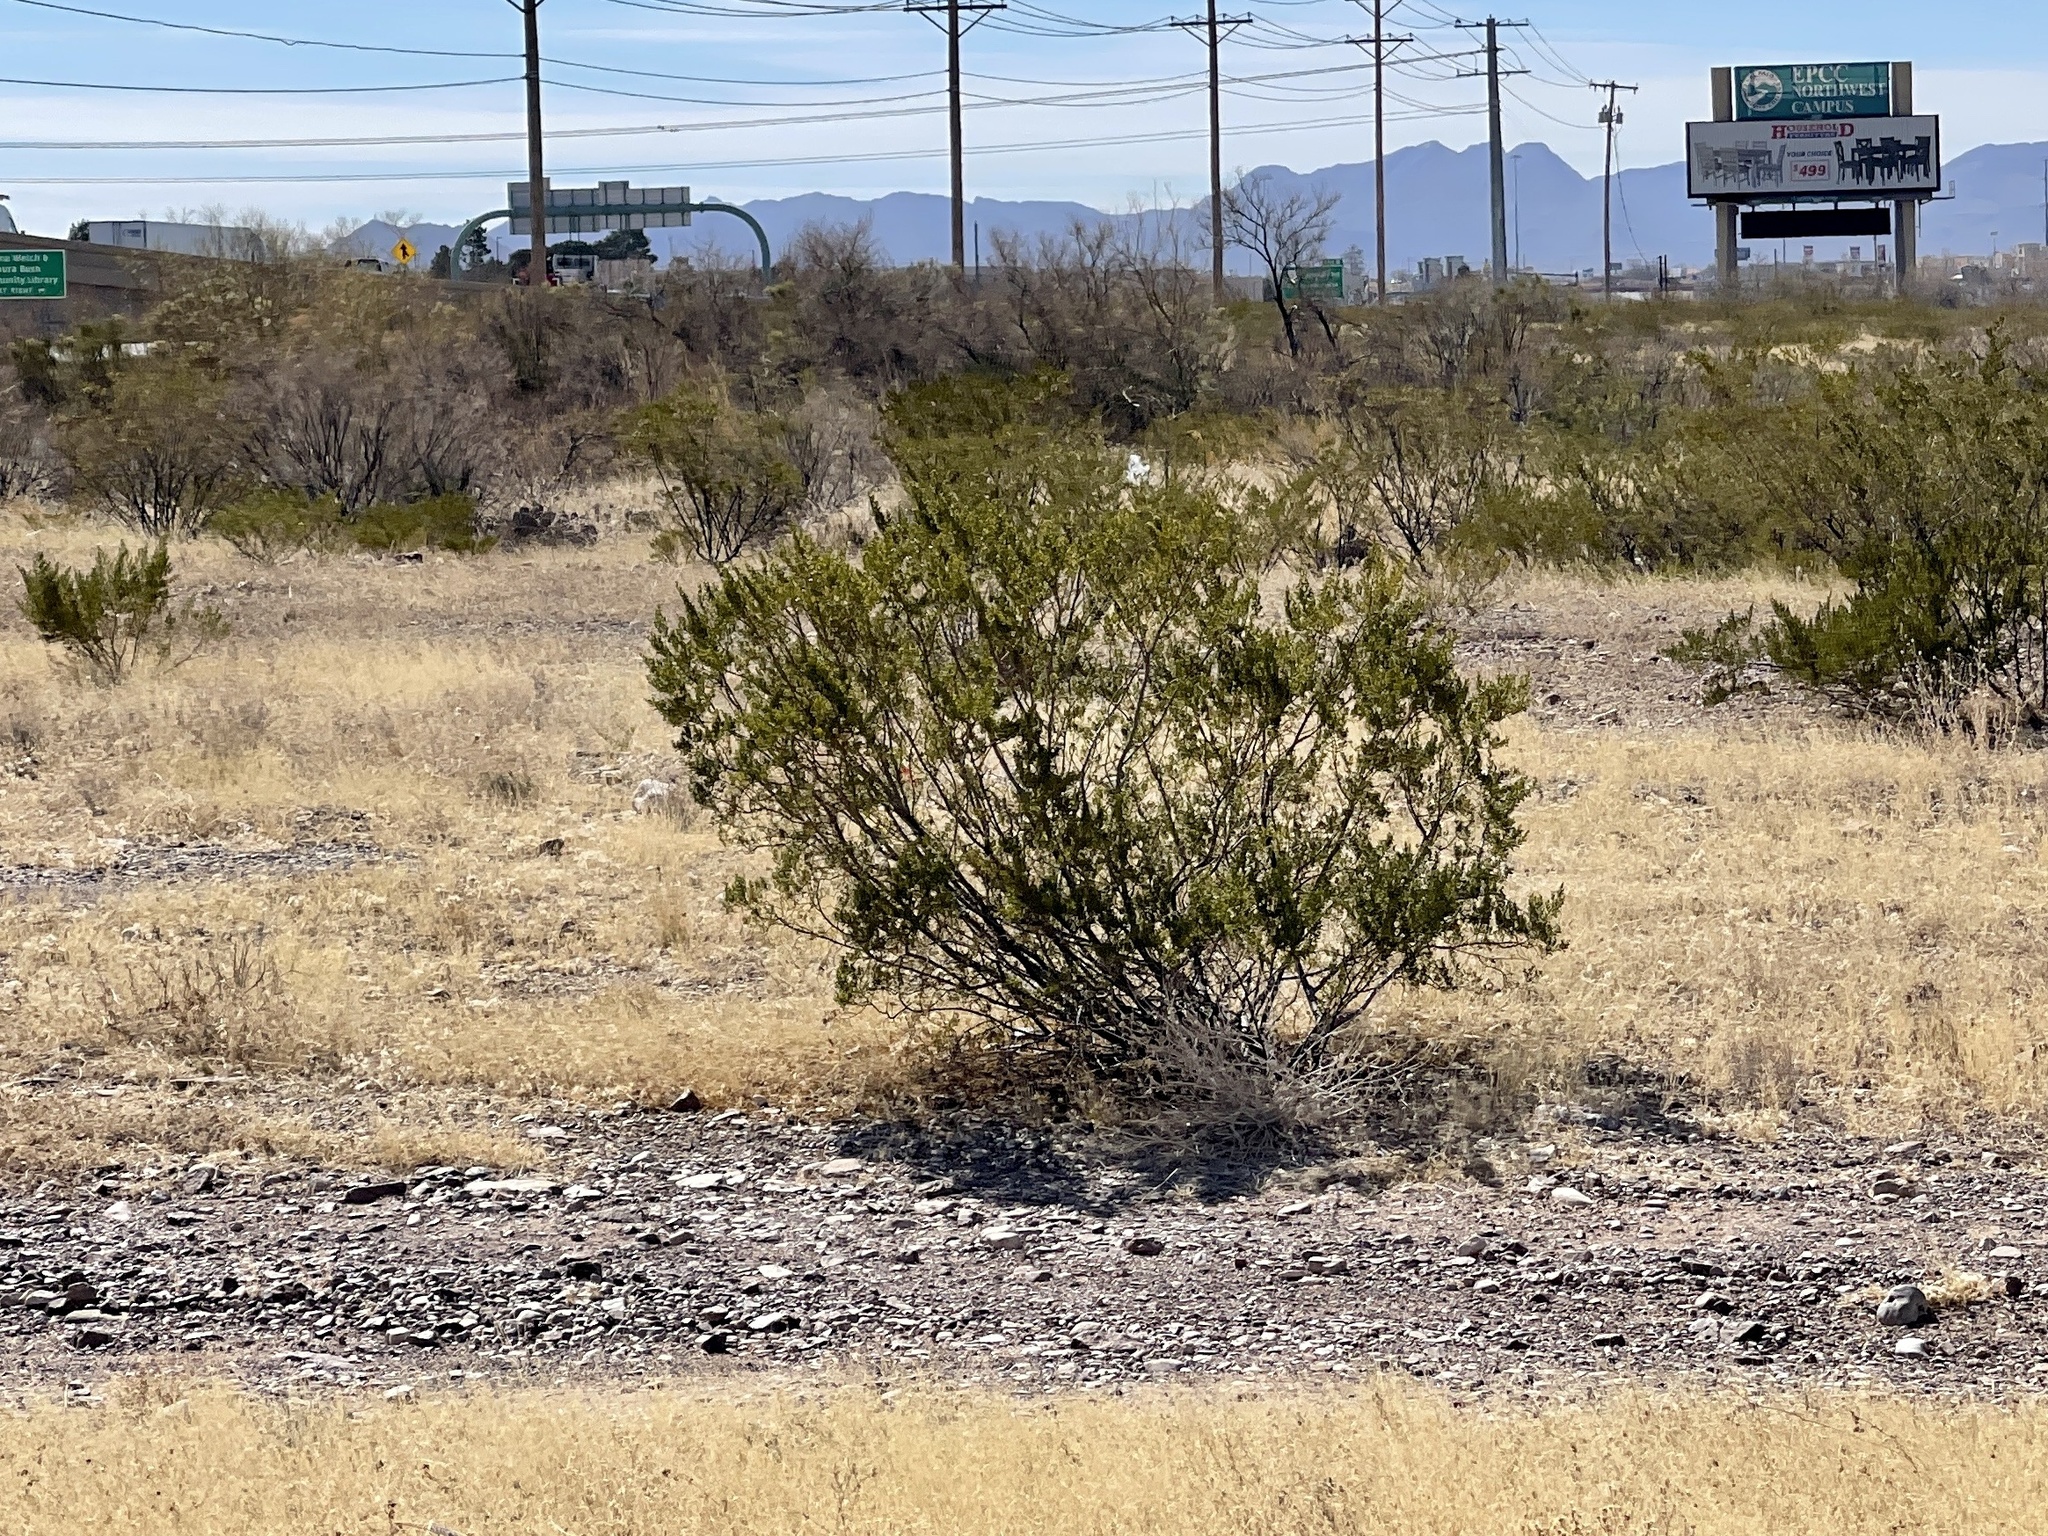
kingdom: Plantae
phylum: Tracheophyta
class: Magnoliopsida
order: Zygophyllales
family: Zygophyllaceae
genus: Larrea
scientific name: Larrea tridentata
